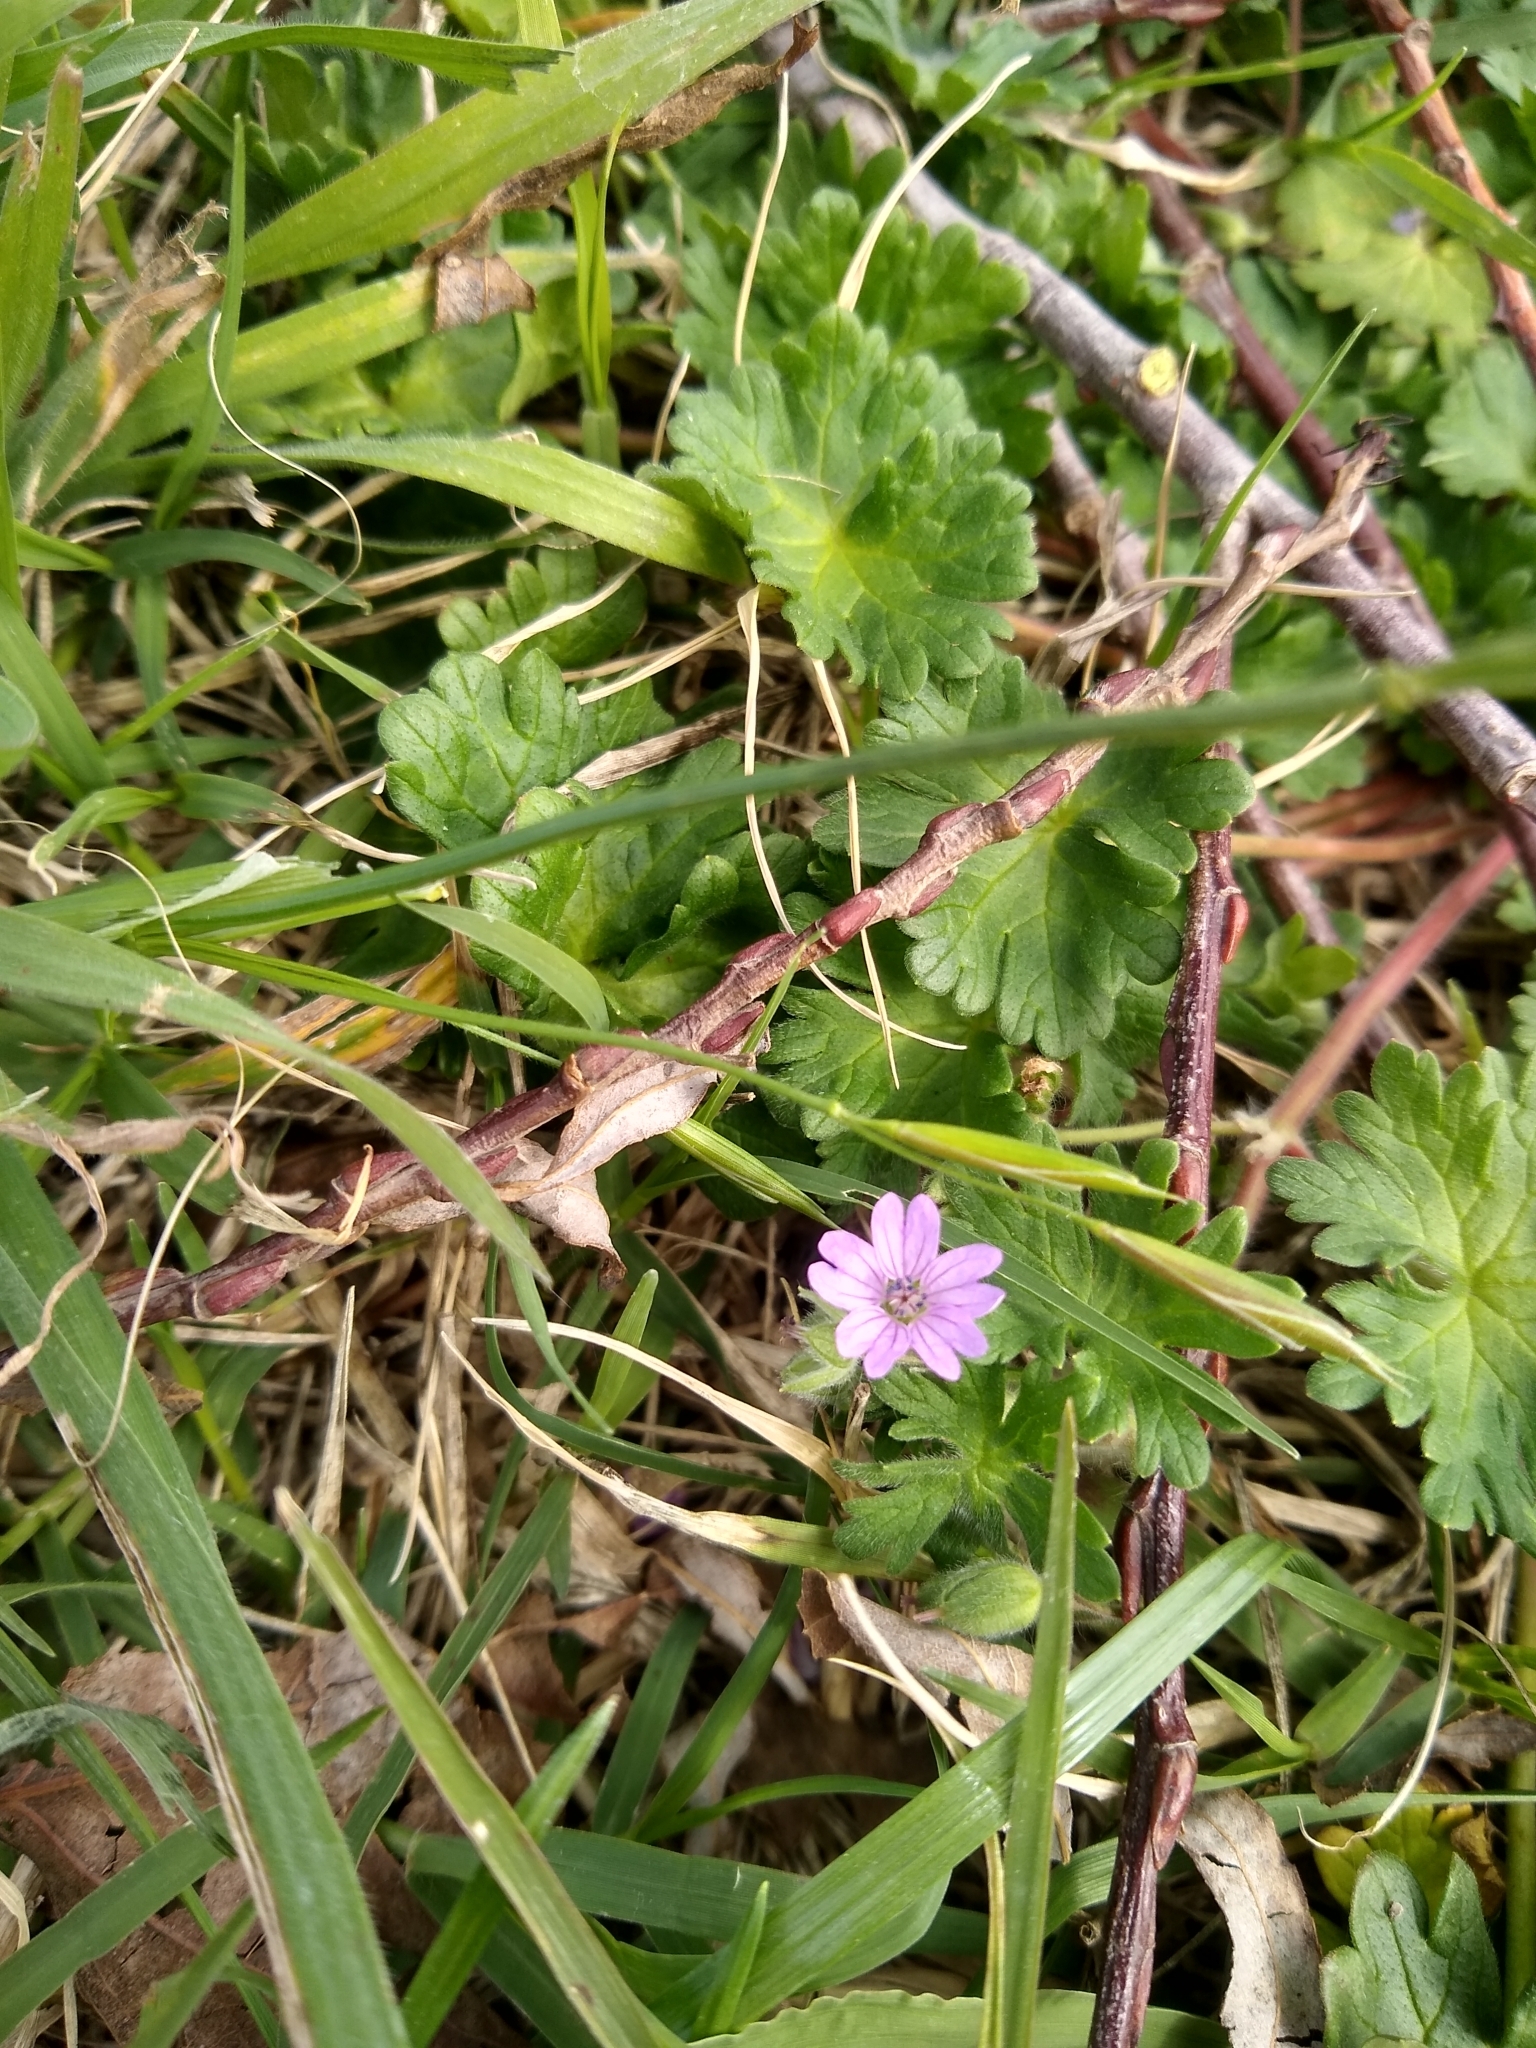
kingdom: Plantae
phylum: Tracheophyta
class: Magnoliopsida
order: Geraniales
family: Geraniaceae
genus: Geranium
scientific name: Geranium molle
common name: Dove's-foot crane's-bill
